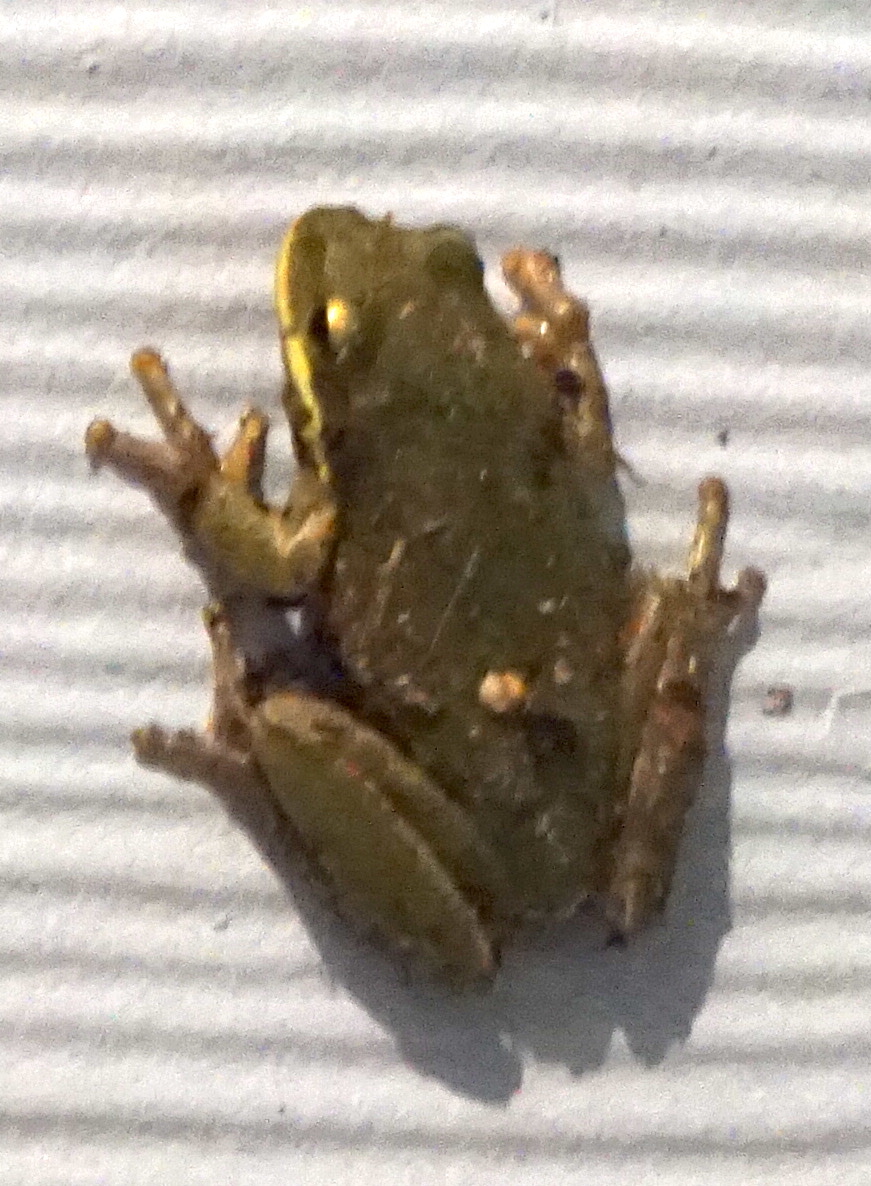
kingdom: Animalia
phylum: Chordata
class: Amphibia
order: Anura
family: Hylidae
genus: Dryophytes
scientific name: Dryophytes squirellus
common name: Squirrel treefrog
